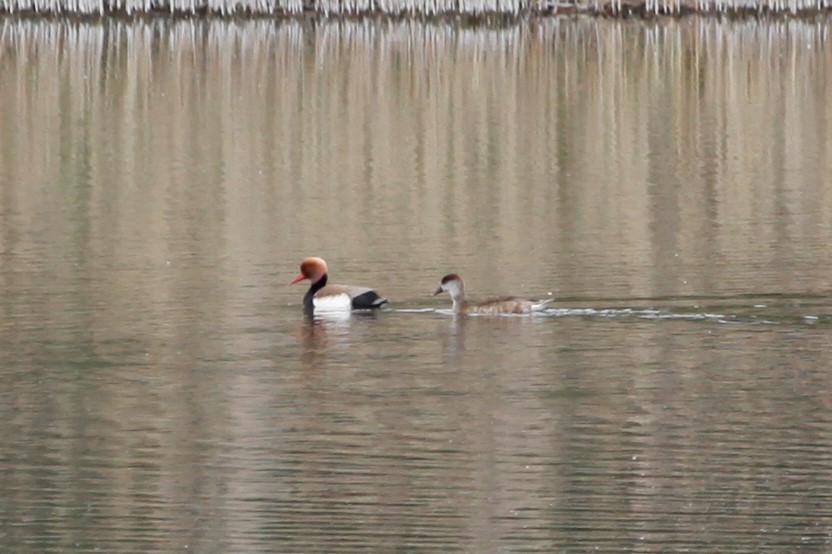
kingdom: Animalia
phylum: Chordata
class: Aves
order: Anseriformes
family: Anatidae
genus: Netta
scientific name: Netta rufina
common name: Red-crested pochard
